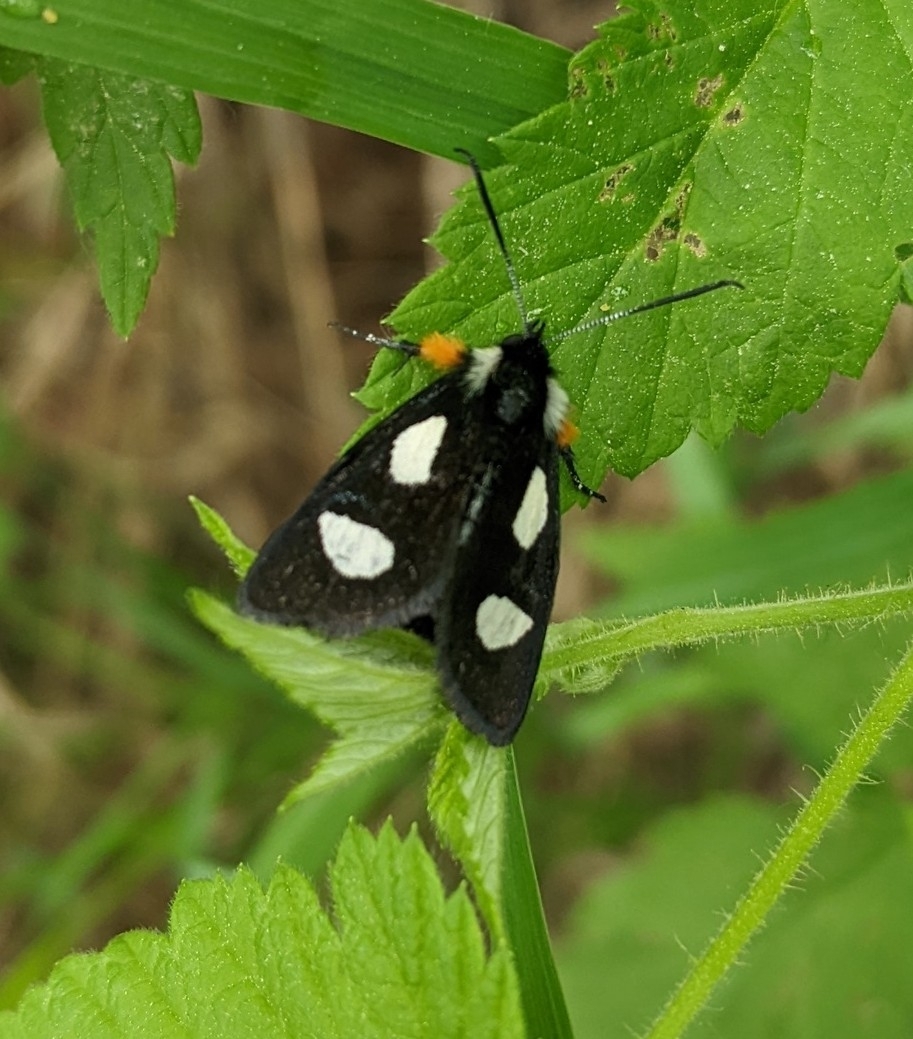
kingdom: Animalia
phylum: Arthropoda
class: Insecta
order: Lepidoptera
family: Noctuidae
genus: Alypia
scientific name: Alypia langtonii
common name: Fireweed caterpillar
